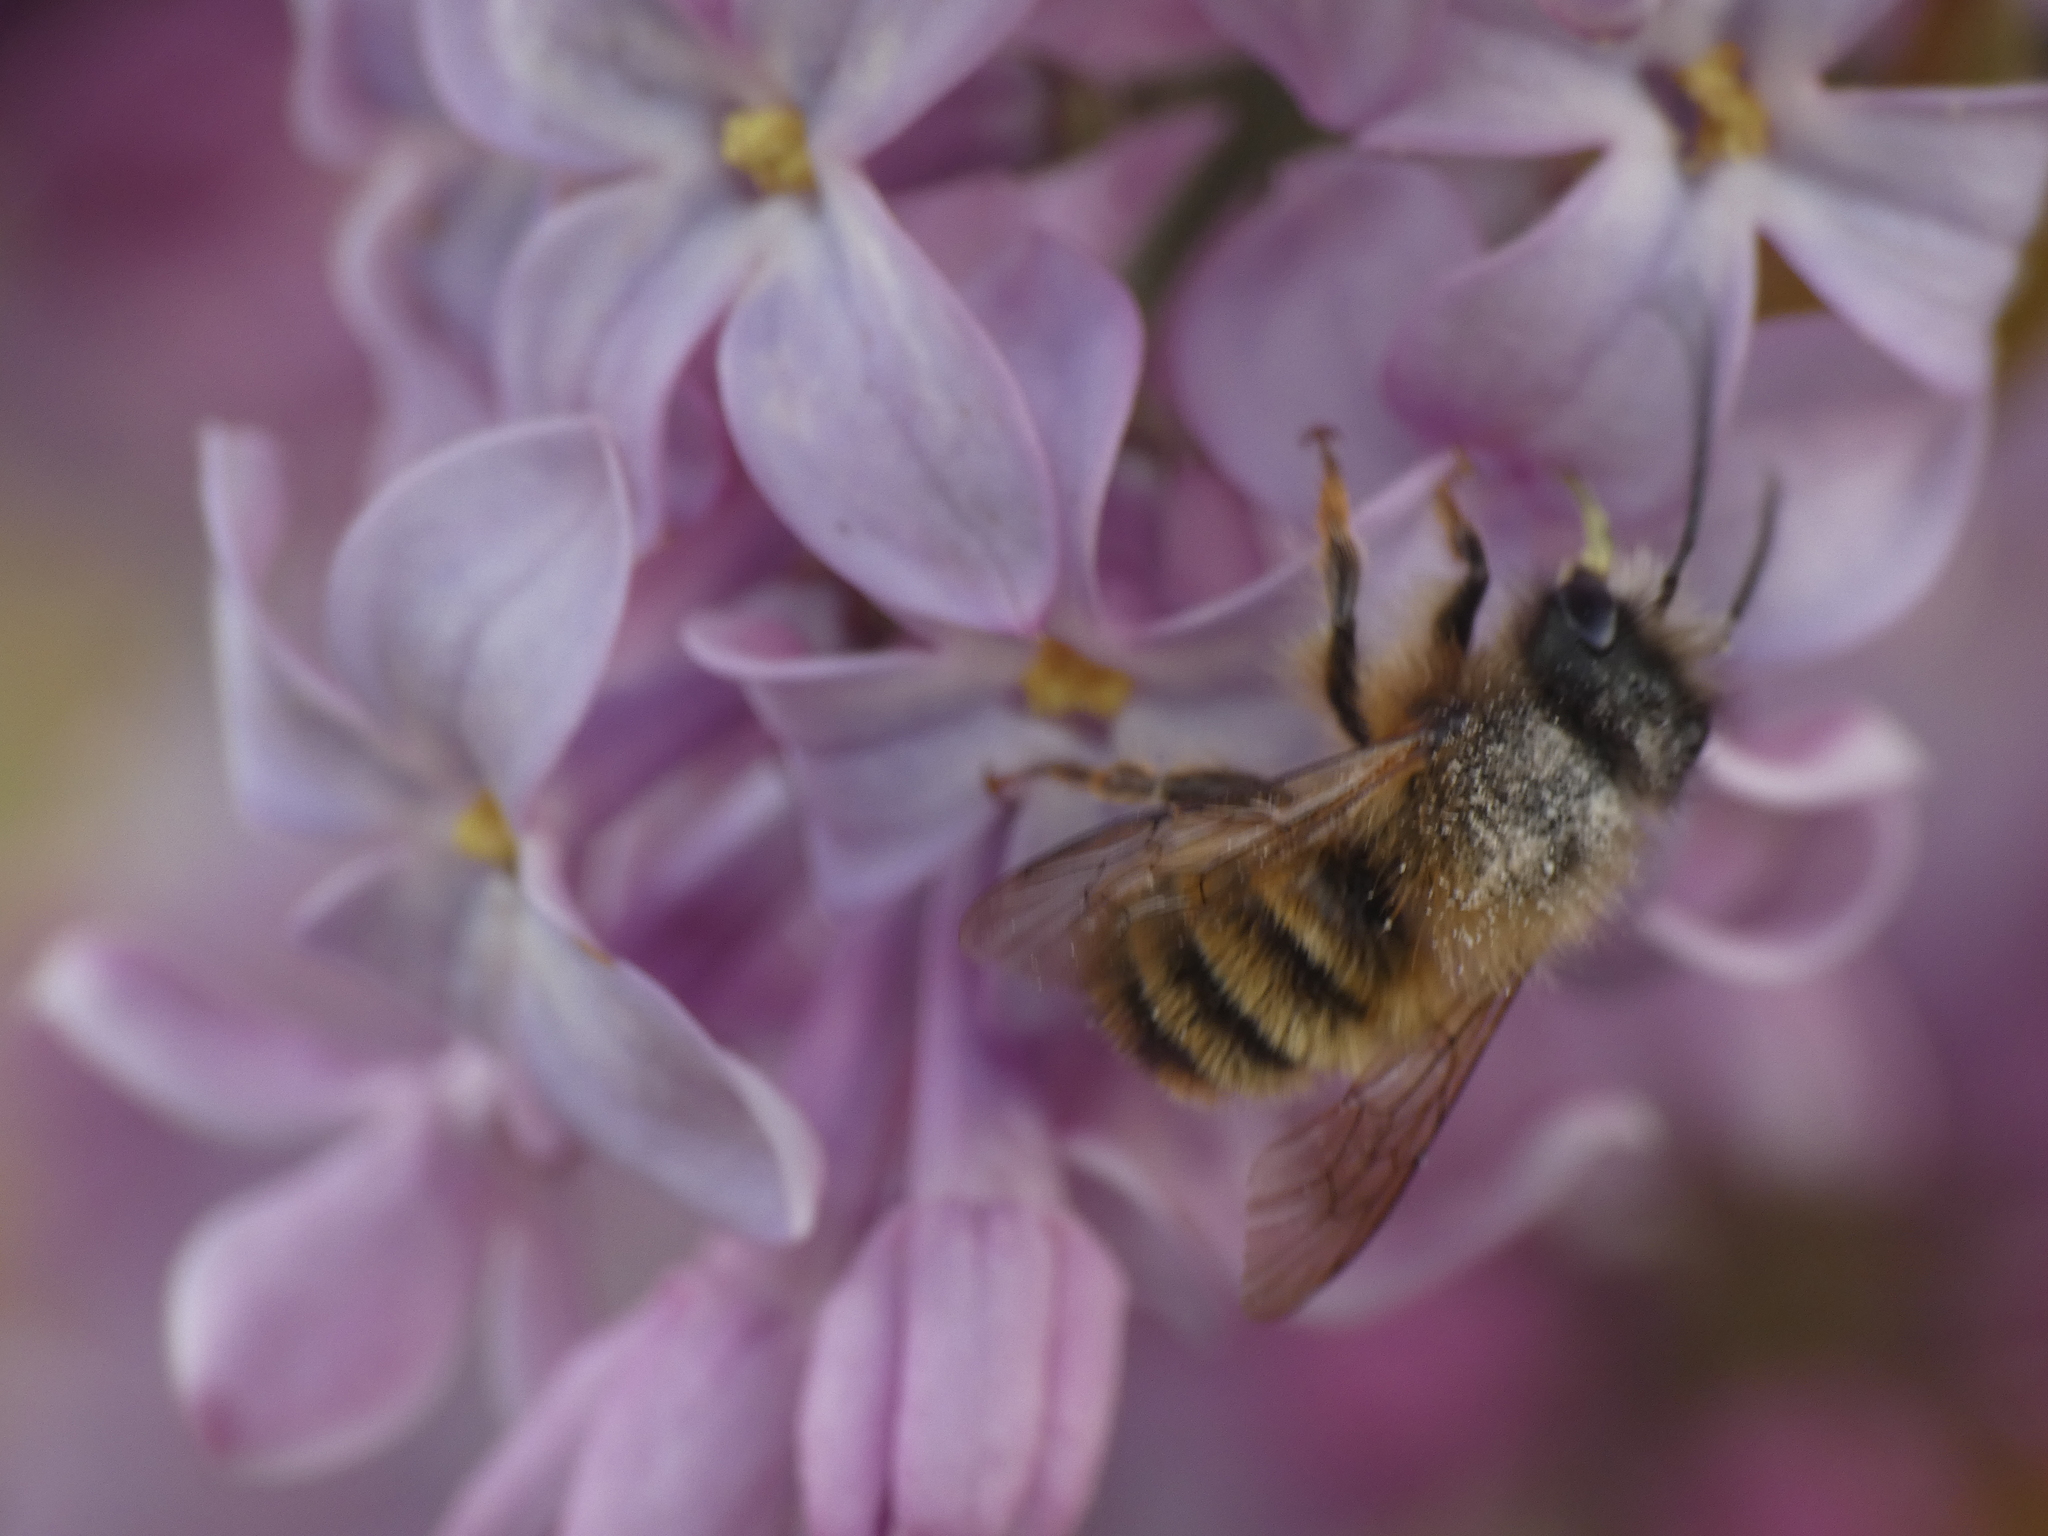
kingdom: Animalia
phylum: Arthropoda
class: Insecta
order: Hymenoptera
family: Megachilidae
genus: Osmia
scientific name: Osmia bicornis
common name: Red mason bee
